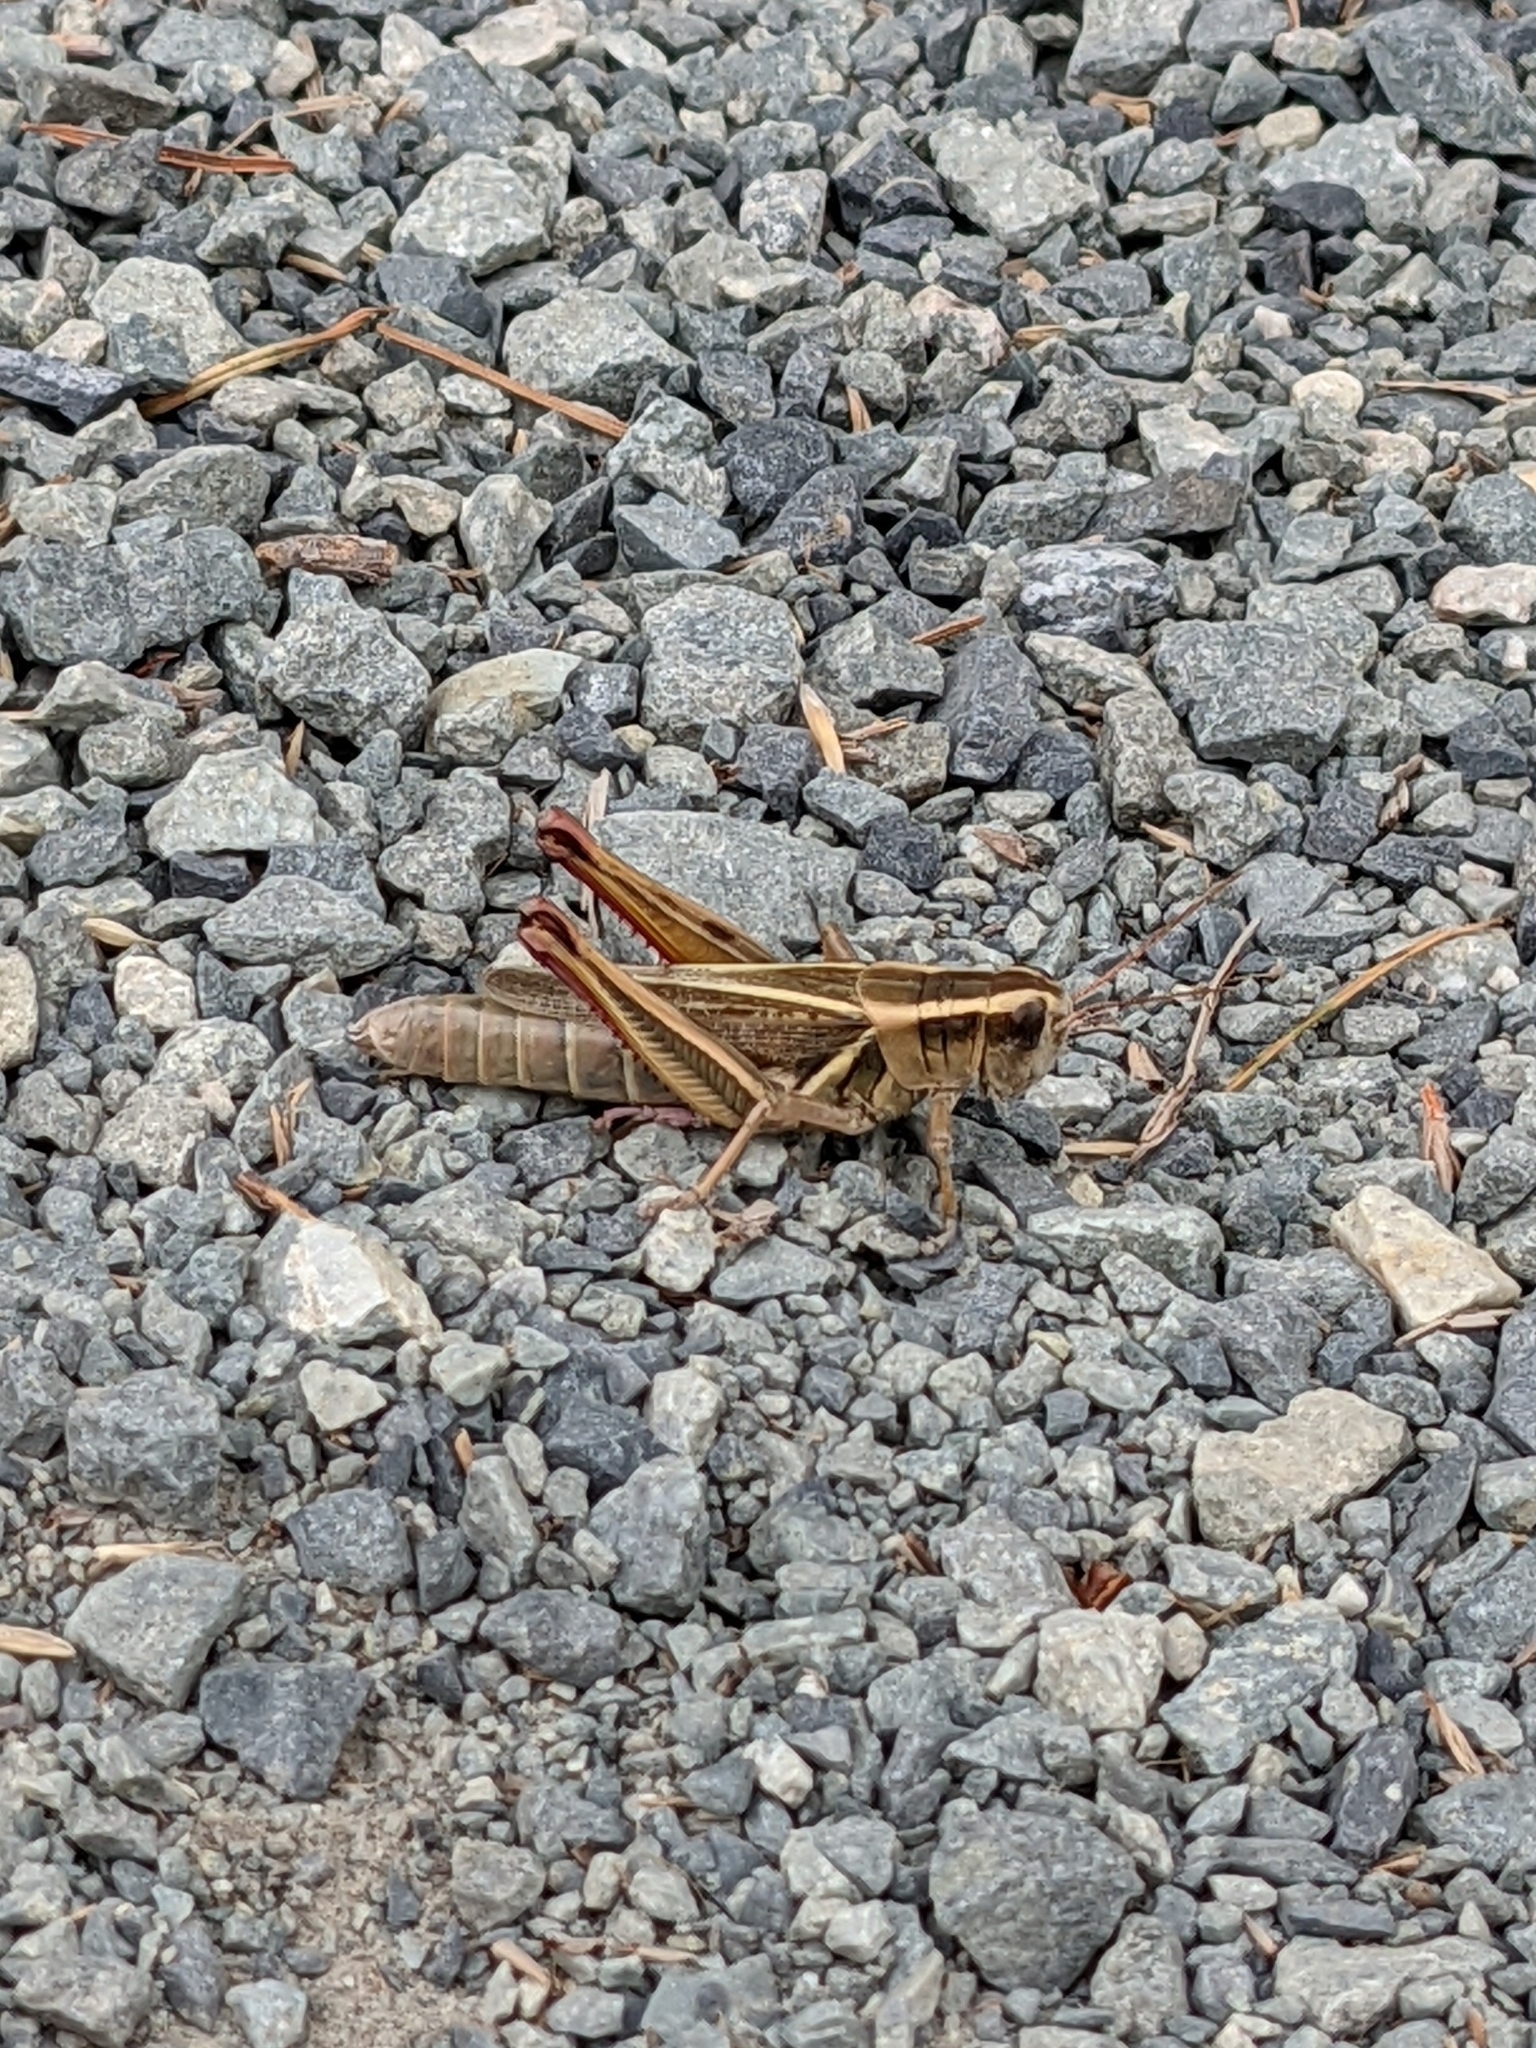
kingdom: Animalia
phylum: Arthropoda
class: Insecta
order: Orthoptera
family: Acrididae
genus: Melanoplus
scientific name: Melanoplus bivittatus
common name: Two-striped grasshopper
